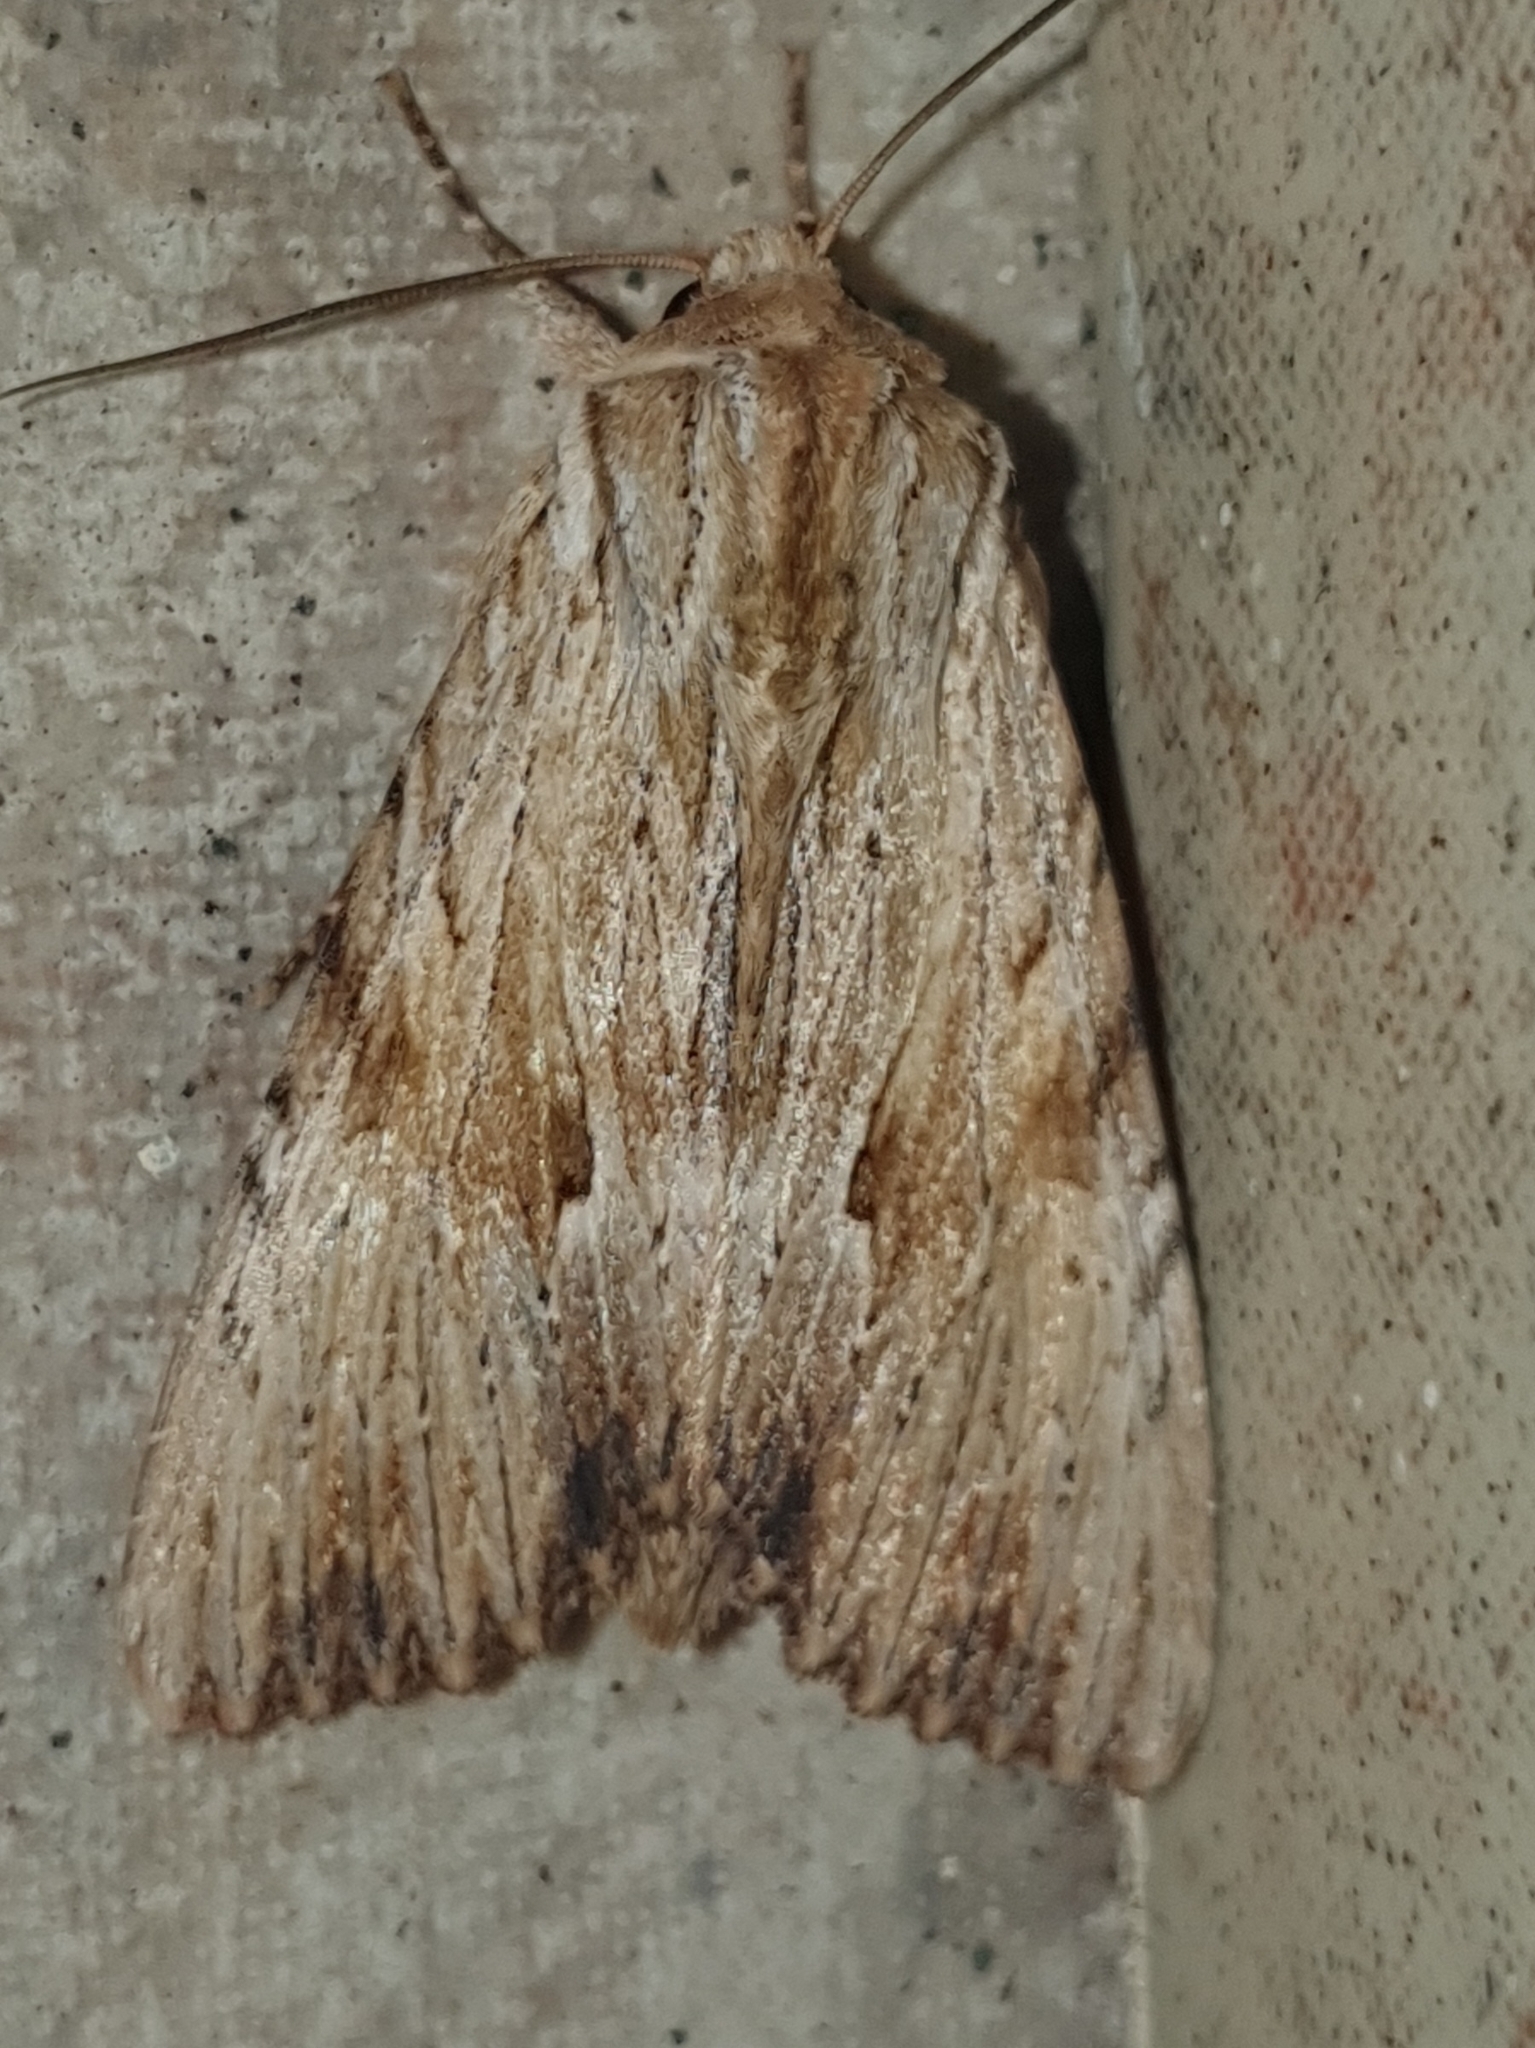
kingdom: Animalia
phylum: Arthropoda
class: Insecta
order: Lepidoptera
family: Noctuidae
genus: Apamea
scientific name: Apamea lithoxylaea
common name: Light arches
